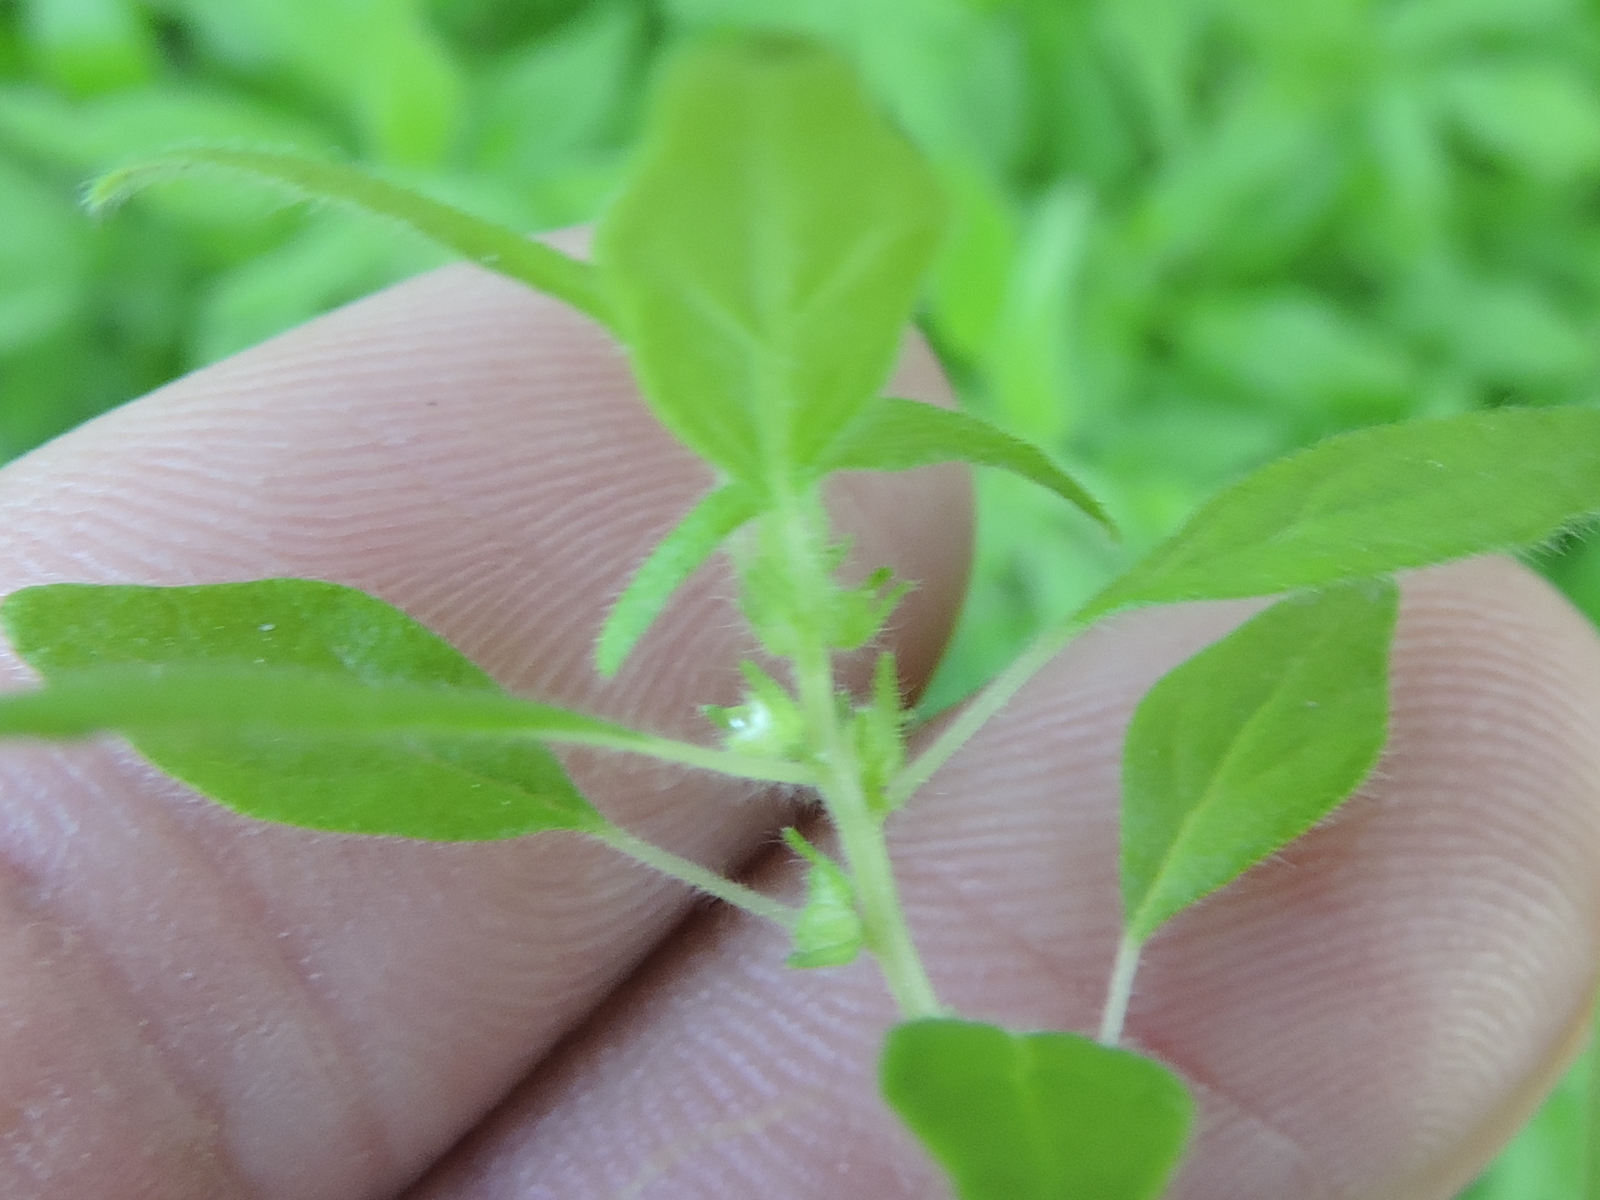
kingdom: Plantae
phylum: Tracheophyta
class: Magnoliopsida
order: Rosales
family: Urticaceae
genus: Parietaria
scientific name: Parietaria pensylvanica
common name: Pennsylvania pellitory
